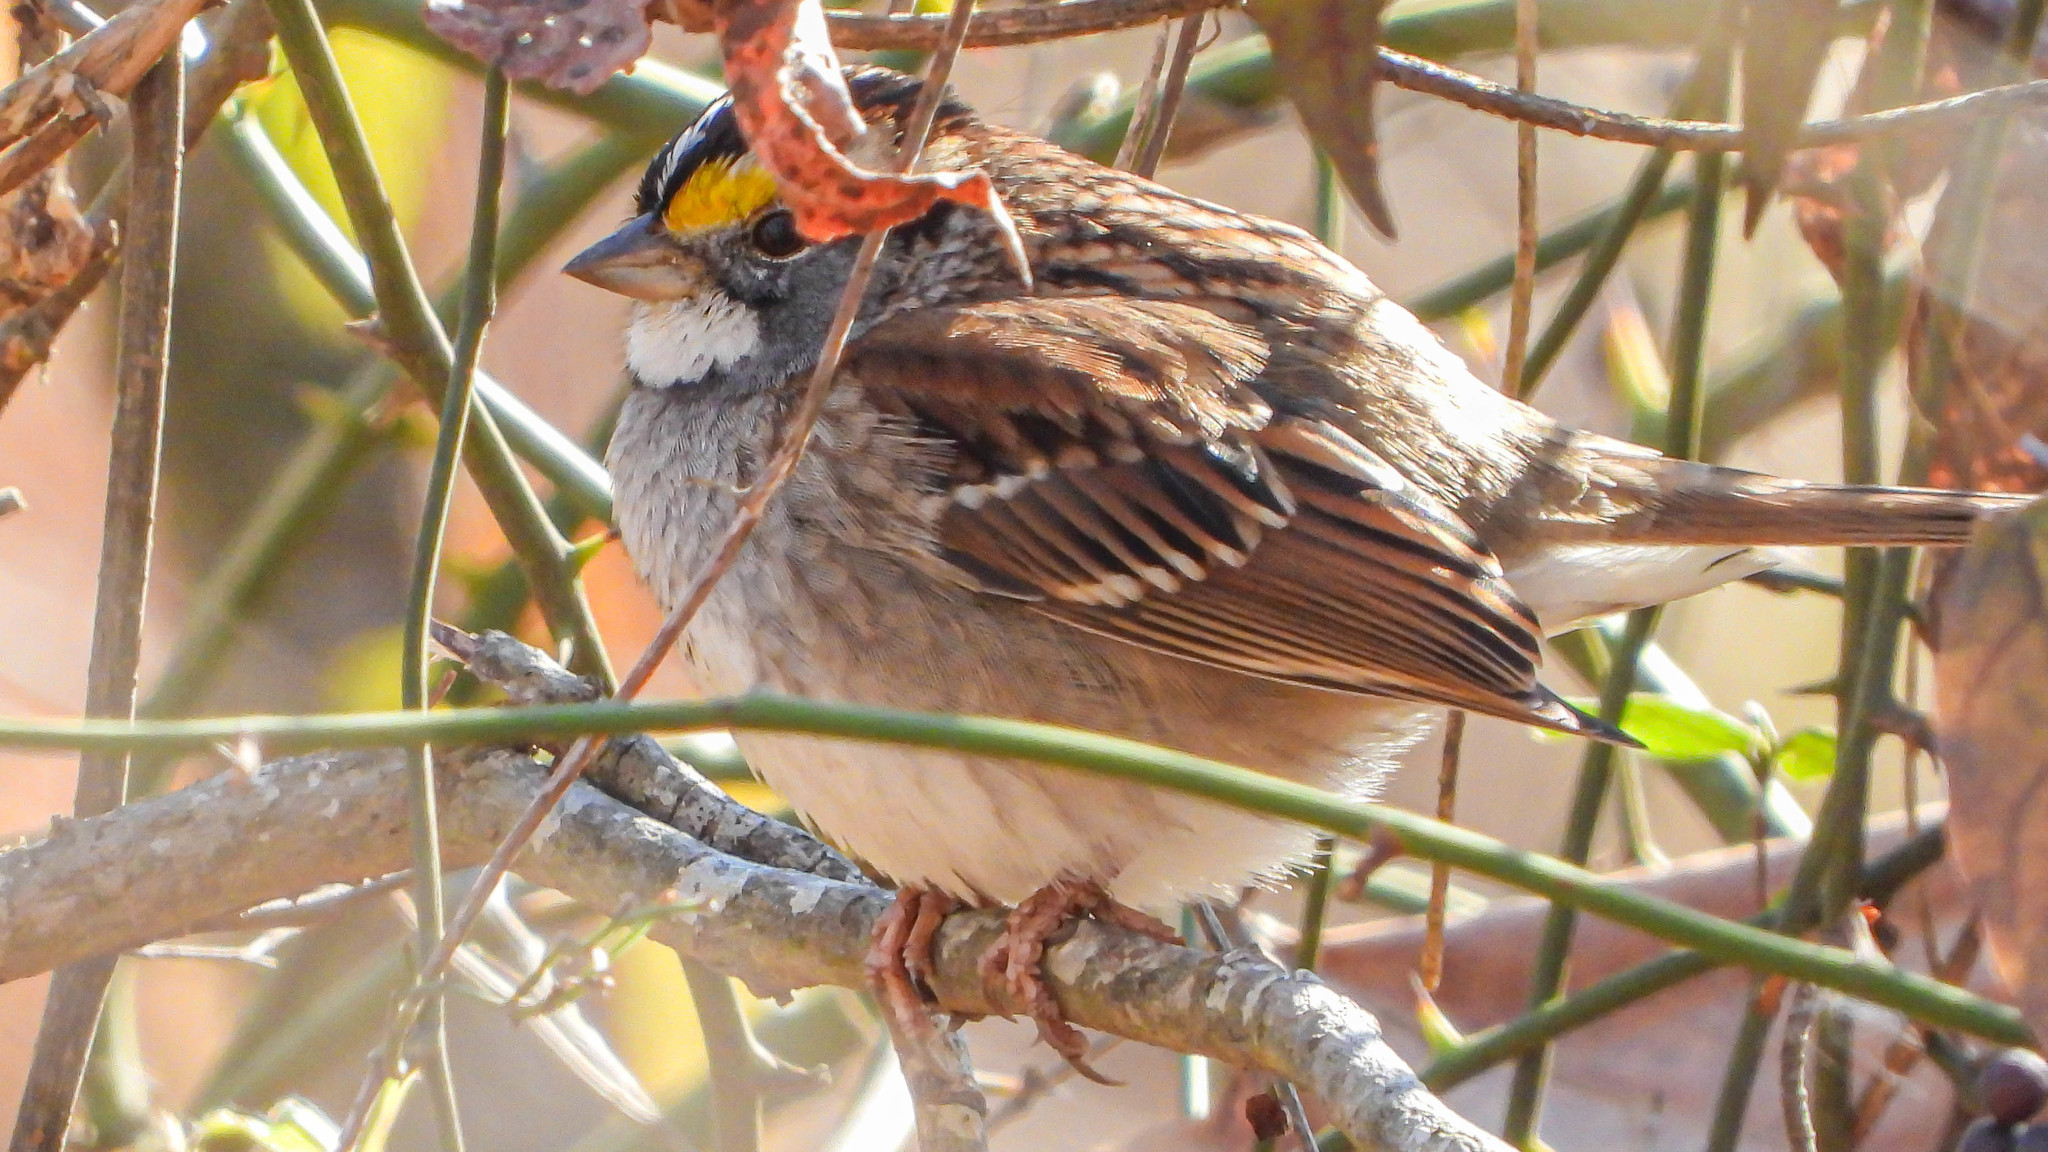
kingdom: Animalia
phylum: Chordata
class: Aves
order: Passeriformes
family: Passerellidae
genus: Zonotrichia
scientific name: Zonotrichia albicollis
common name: White-throated sparrow
